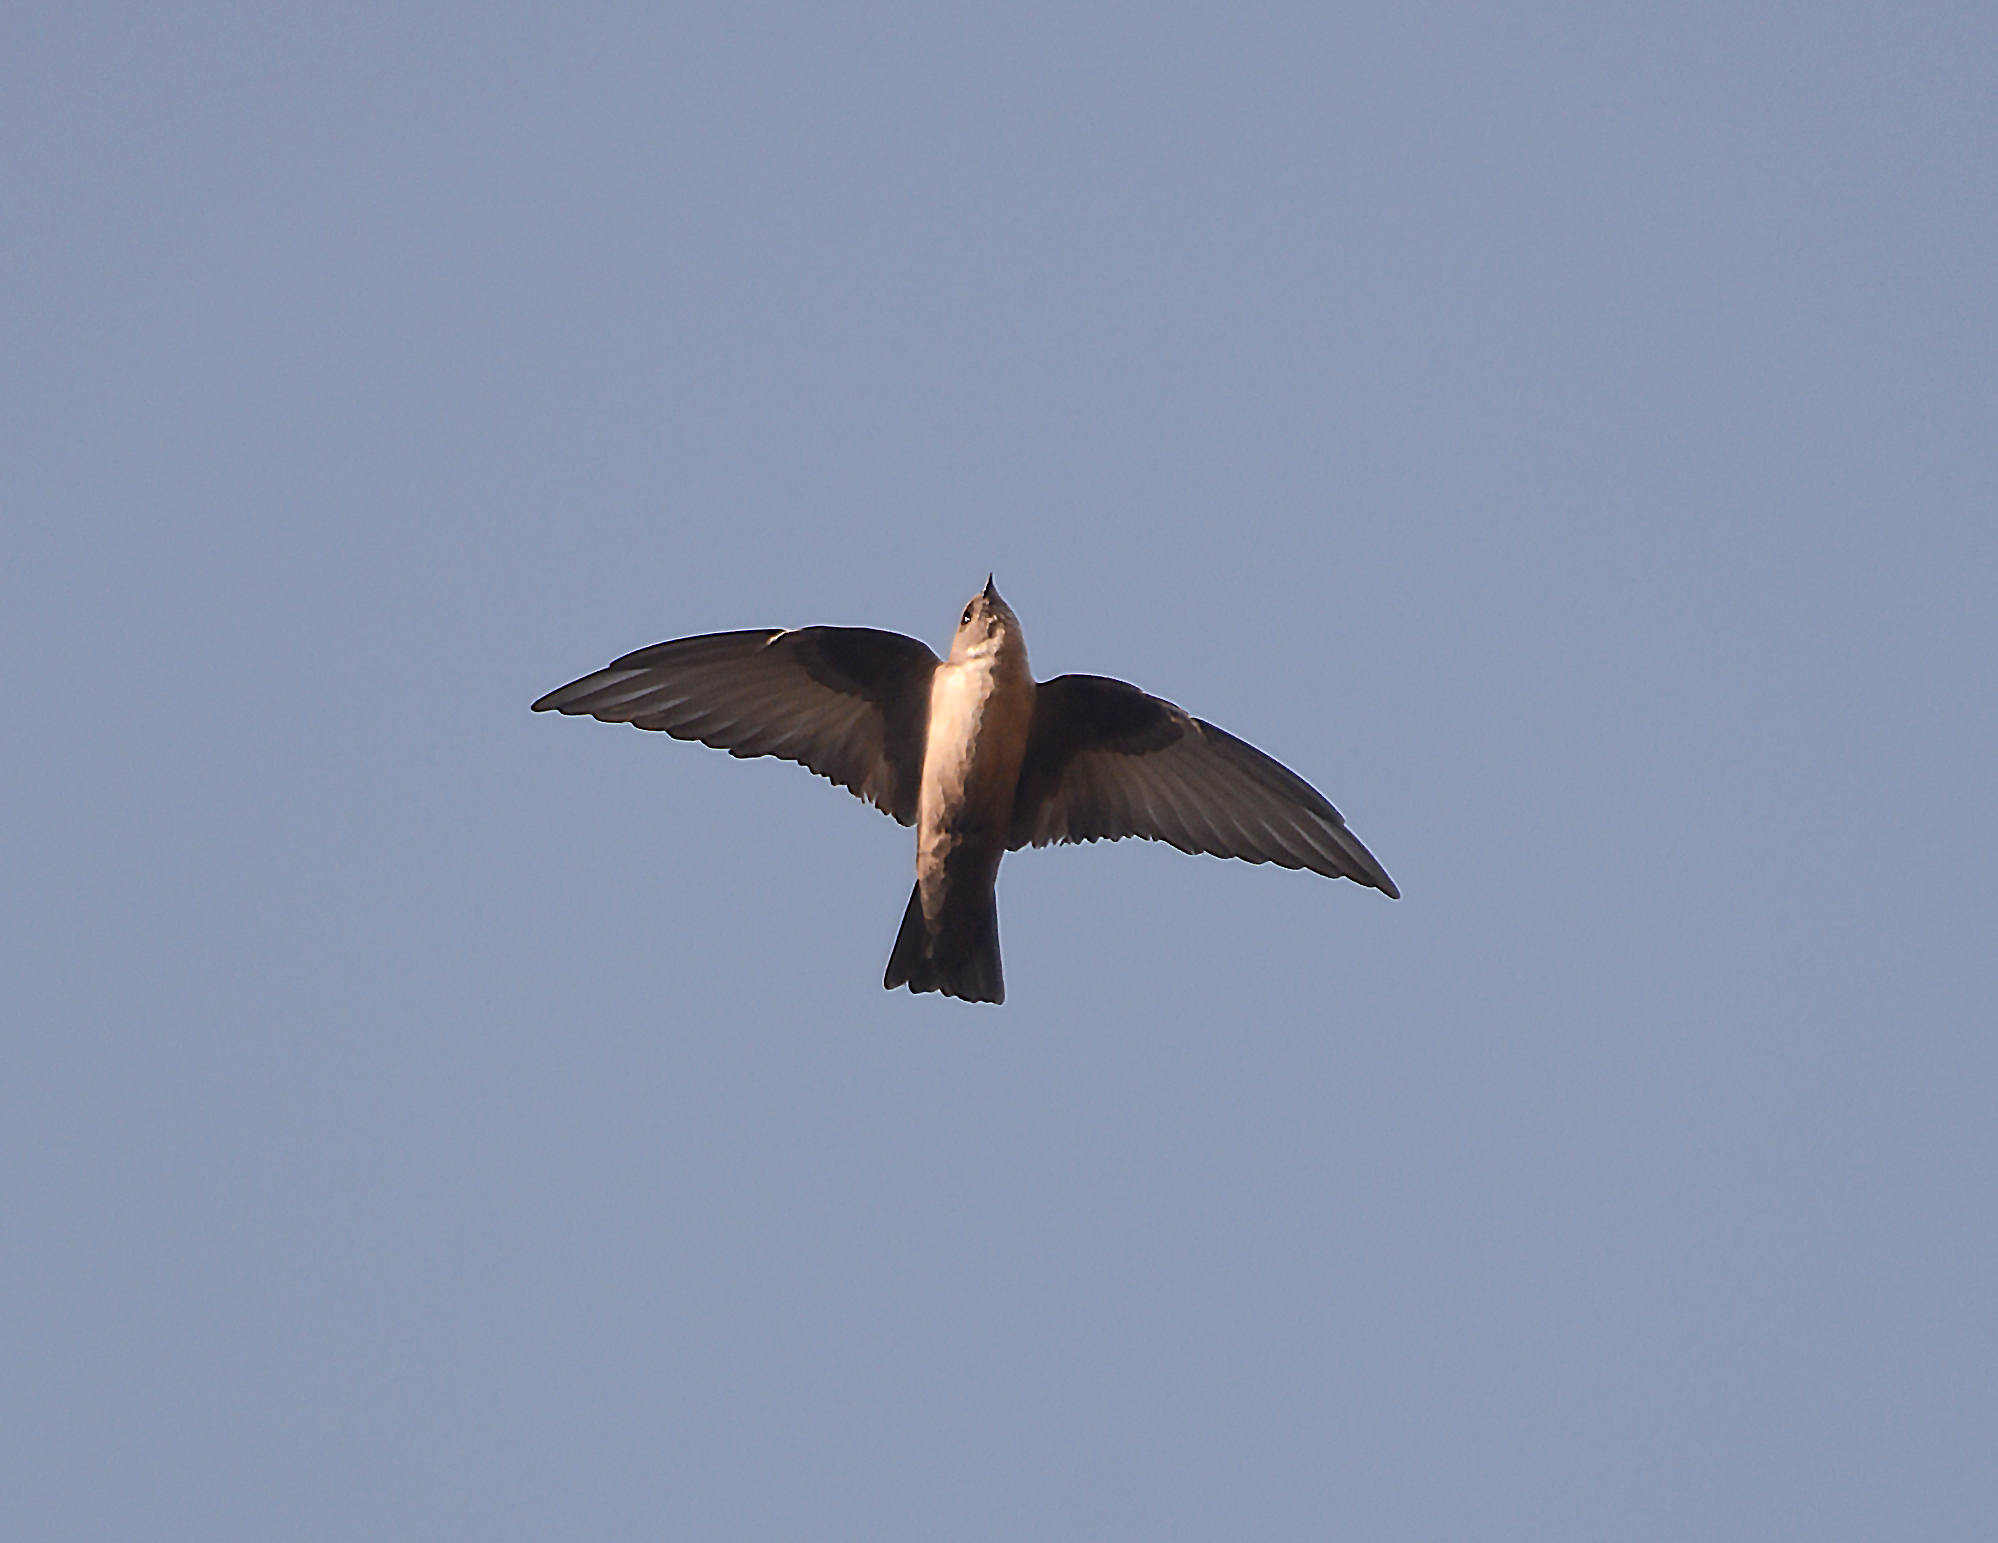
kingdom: Animalia
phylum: Chordata
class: Aves
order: Passeriformes
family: Hirundinidae
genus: Ptyonoprogne
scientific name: Ptyonoprogne rupestris
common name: Eurasian crag martin
